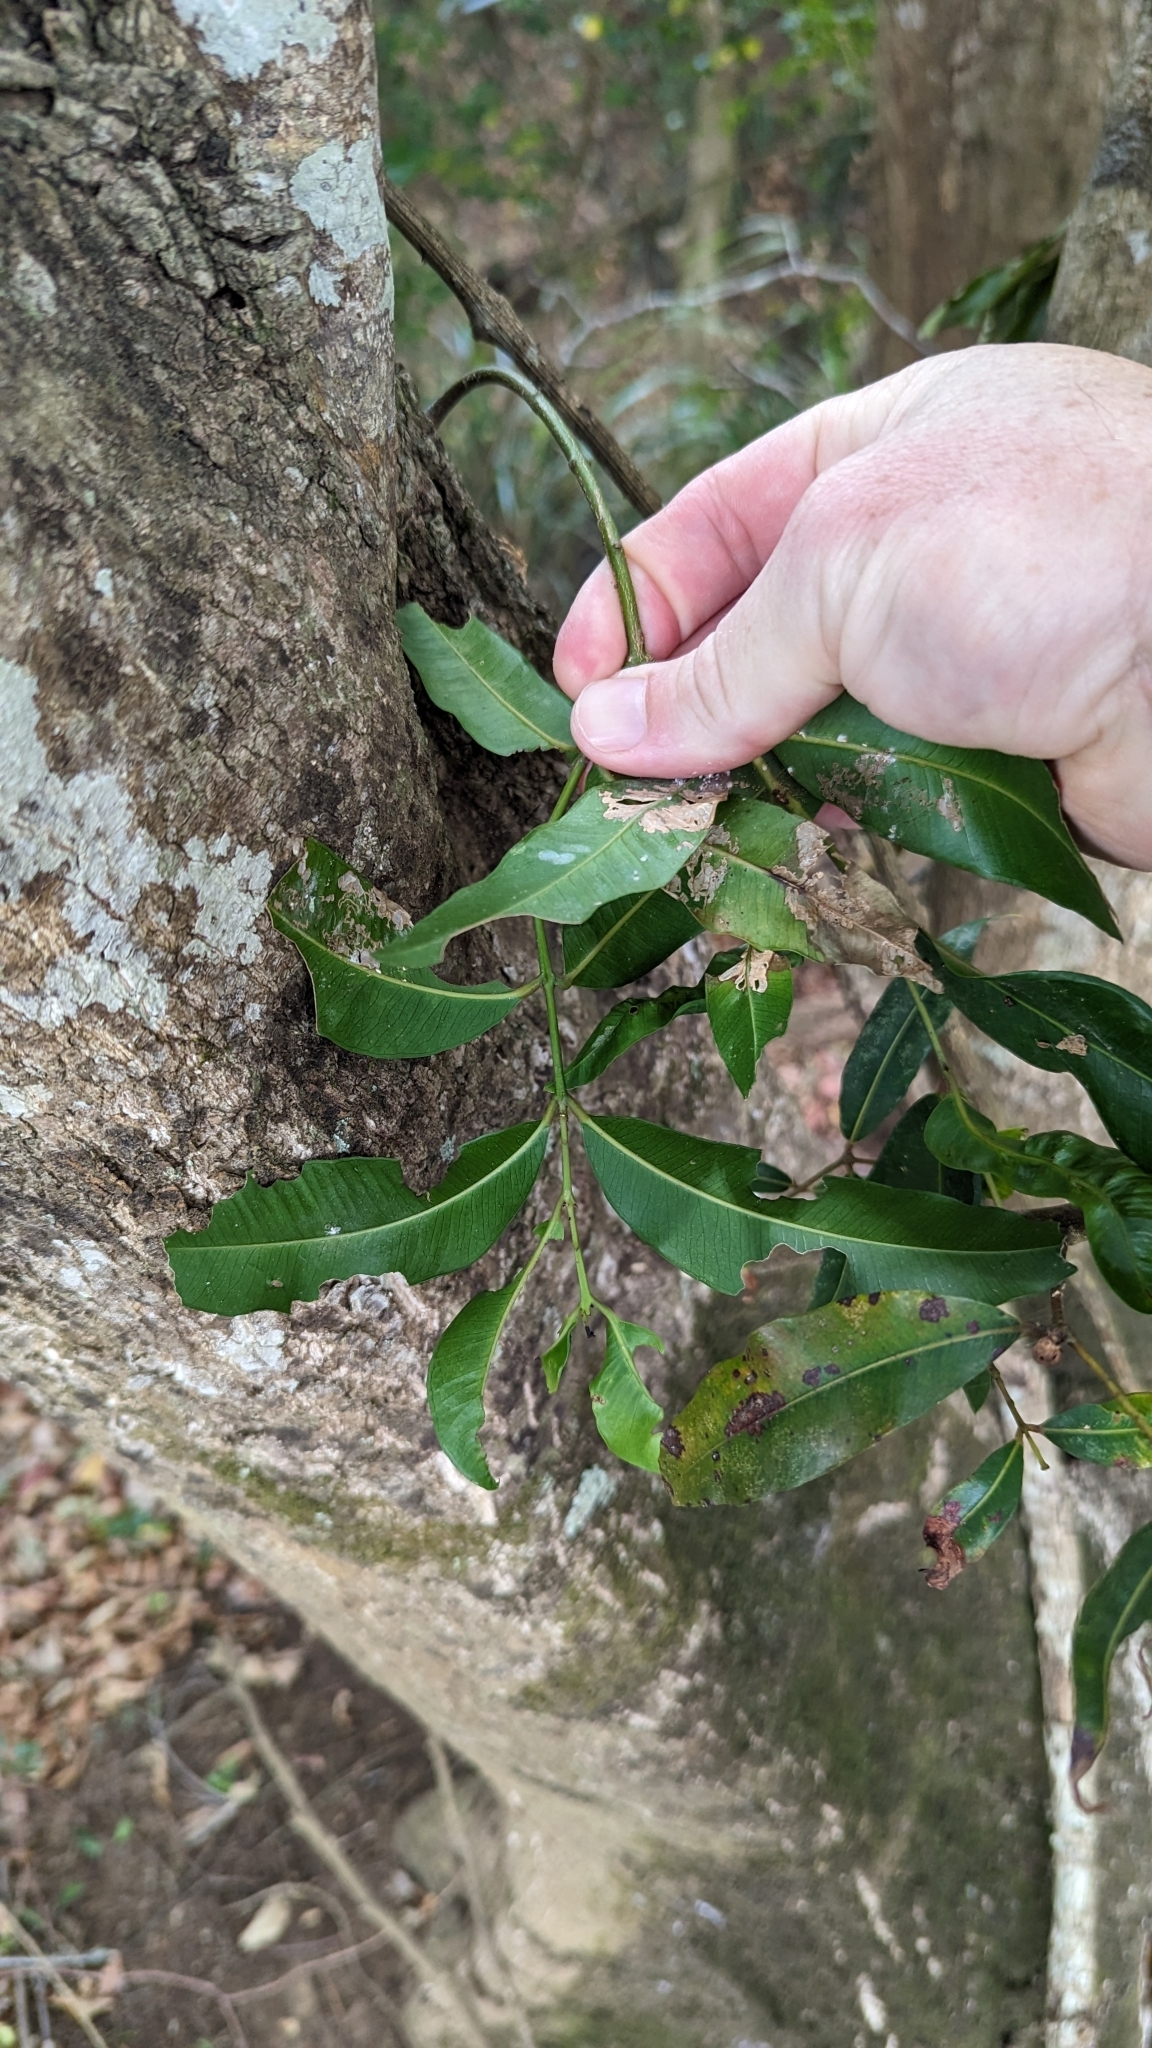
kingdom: Plantae
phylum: Tracheophyta
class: Magnoliopsida
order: Myrtales
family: Myrtaceae
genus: Syzygium
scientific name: Syzygium floribundum
